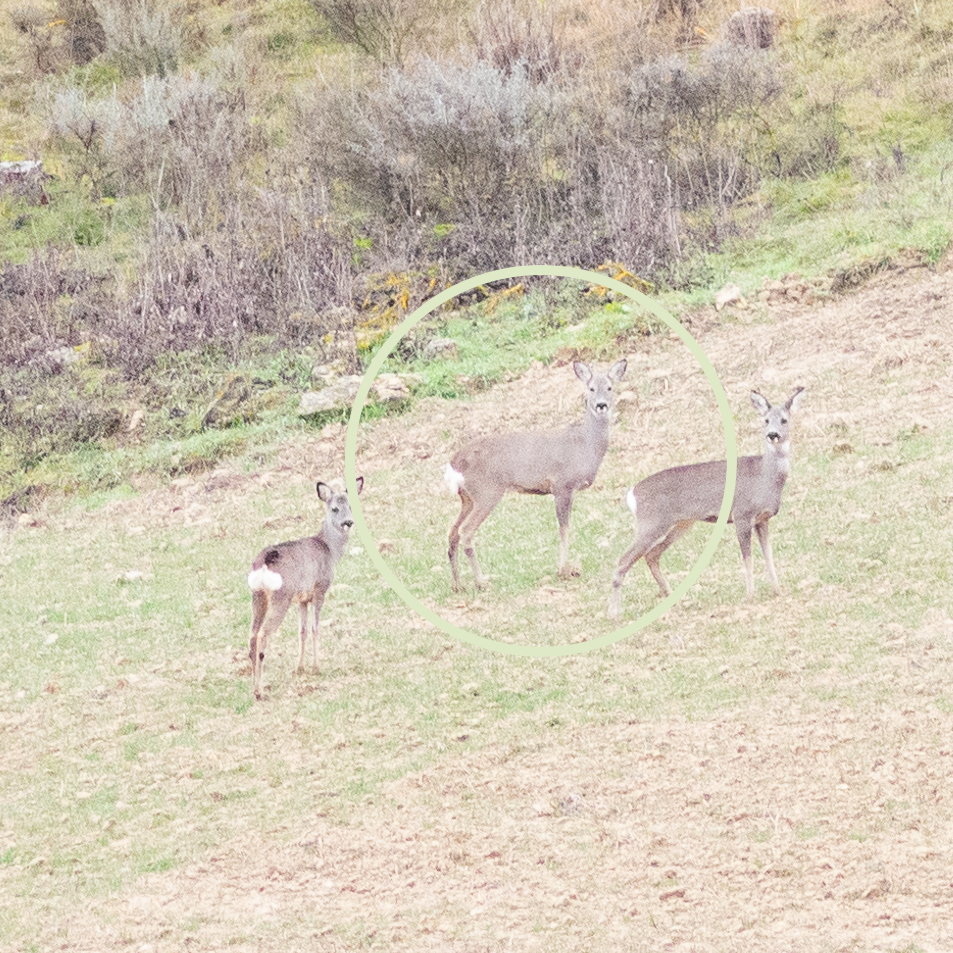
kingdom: Animalia
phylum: Chordata
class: Mammalia
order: Artiodactyla
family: Cervidae
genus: Capreolus
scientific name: Capreolus capreolus
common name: Western roe deer
